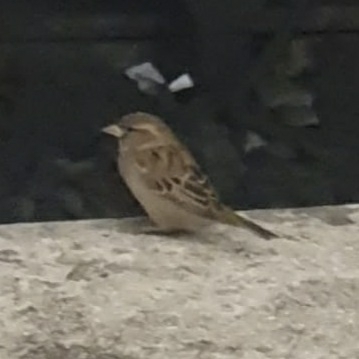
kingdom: Animalia
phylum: Chordata
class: Aves
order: Passeriformes
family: Passeridae
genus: Passer
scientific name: Passer domesticus
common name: House sparrow
